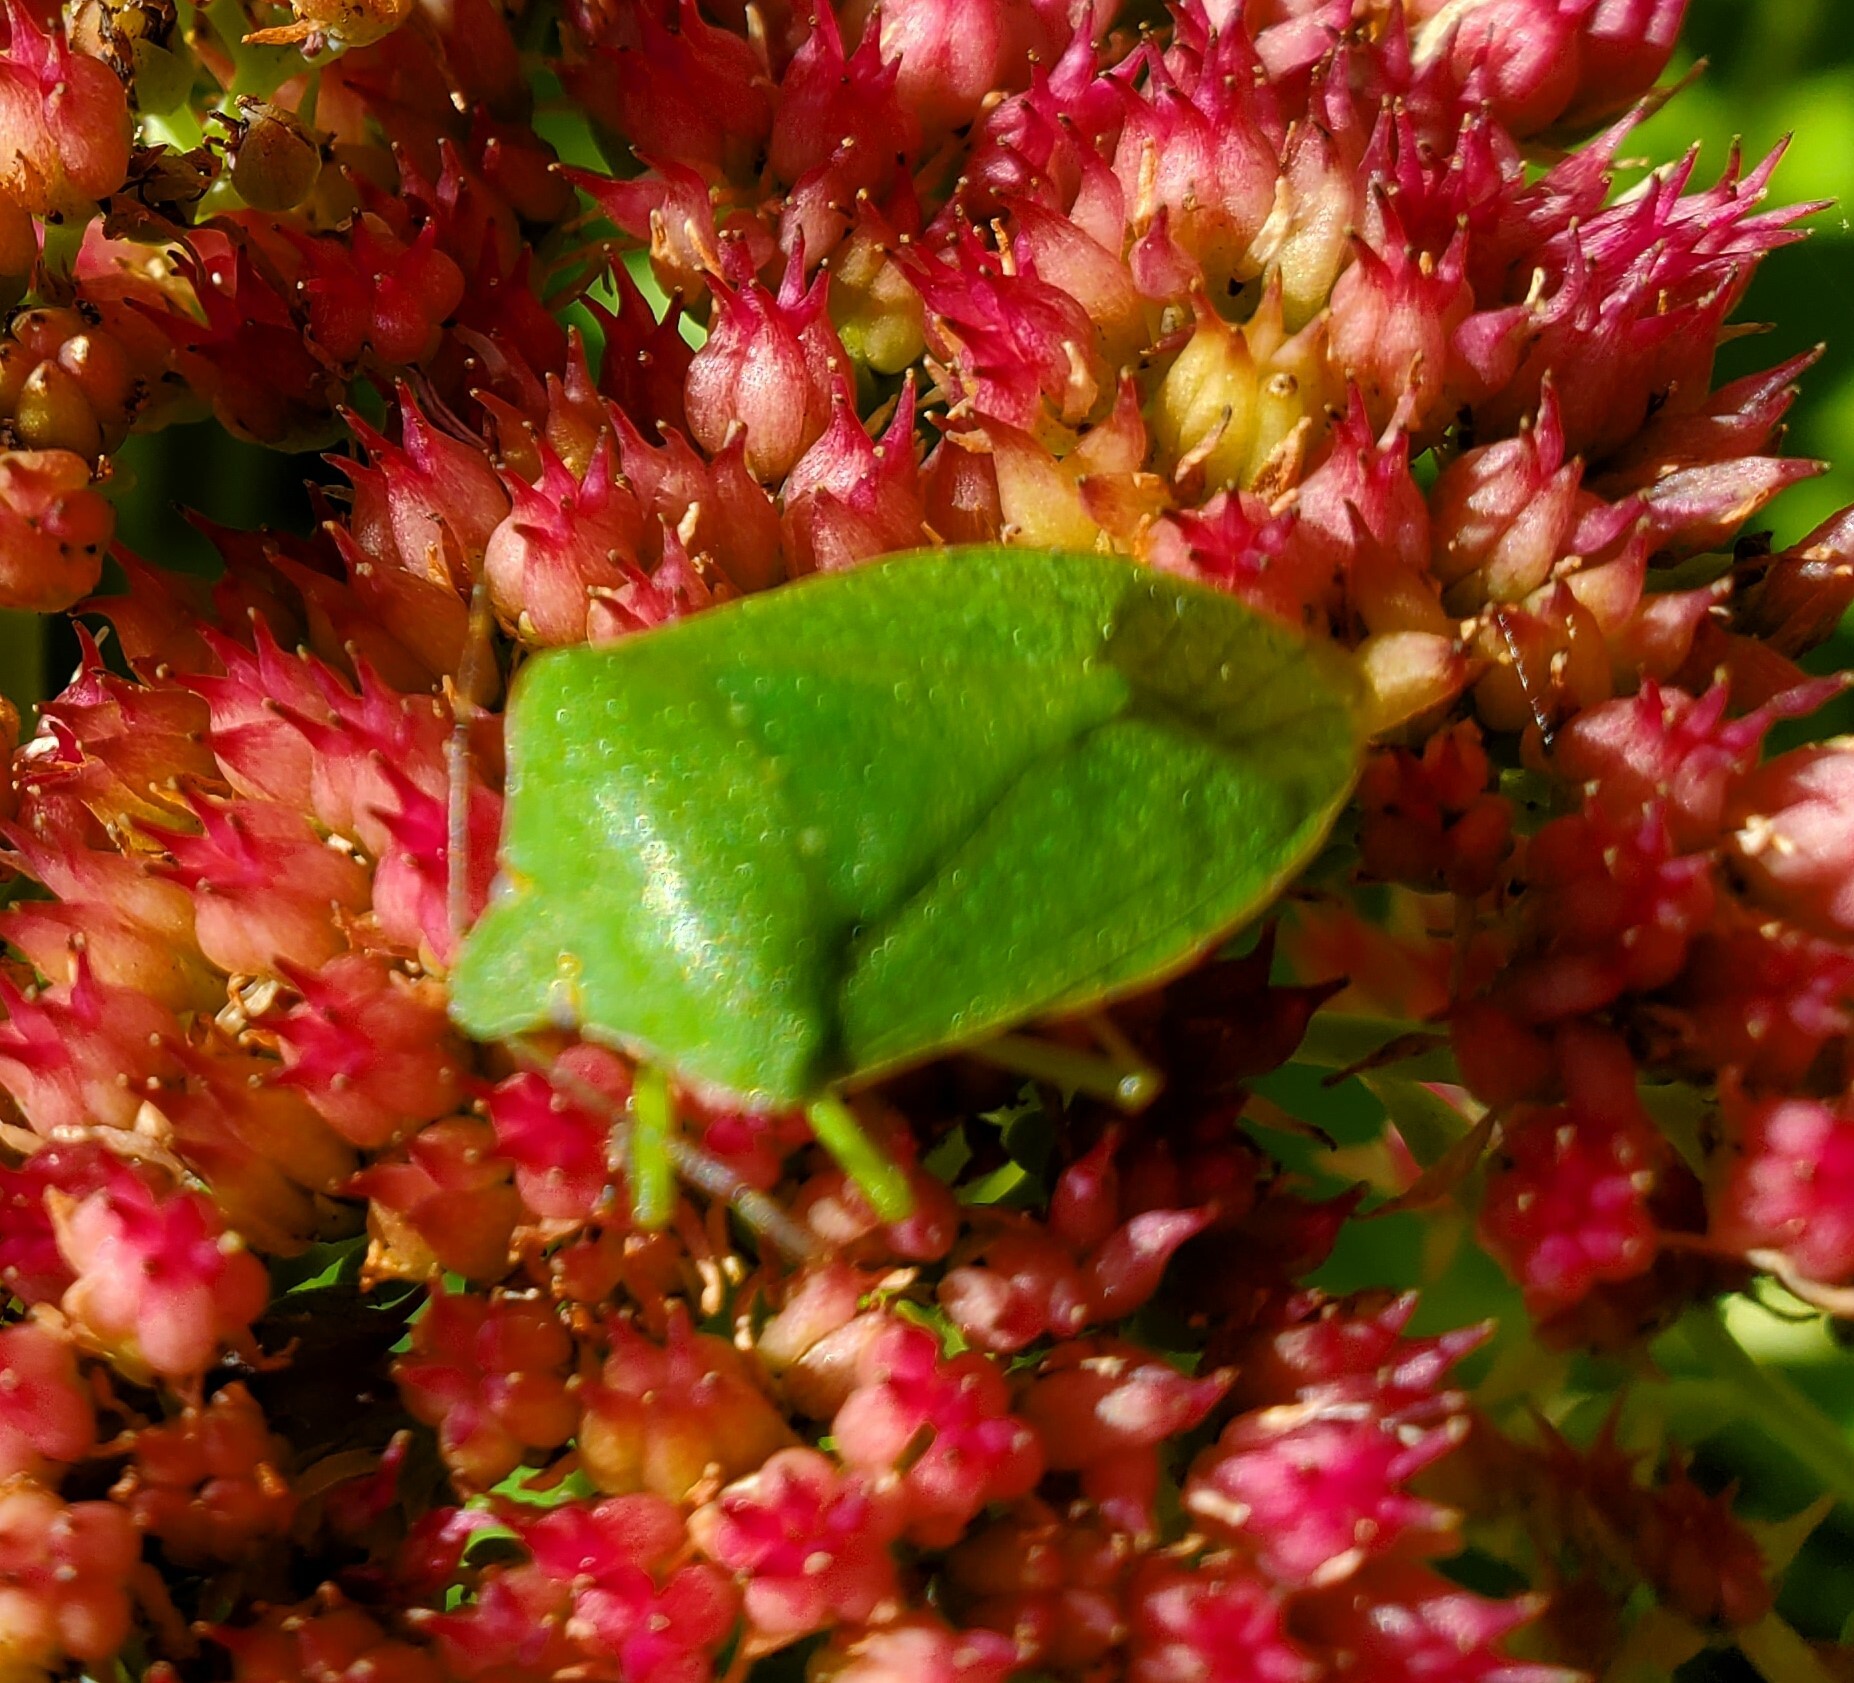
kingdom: Animalia
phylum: Arthropoda
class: Insecta
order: Hemiptera
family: Pentatomidae
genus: Nezara
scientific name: Nezara viridula
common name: Southern green stink bug
